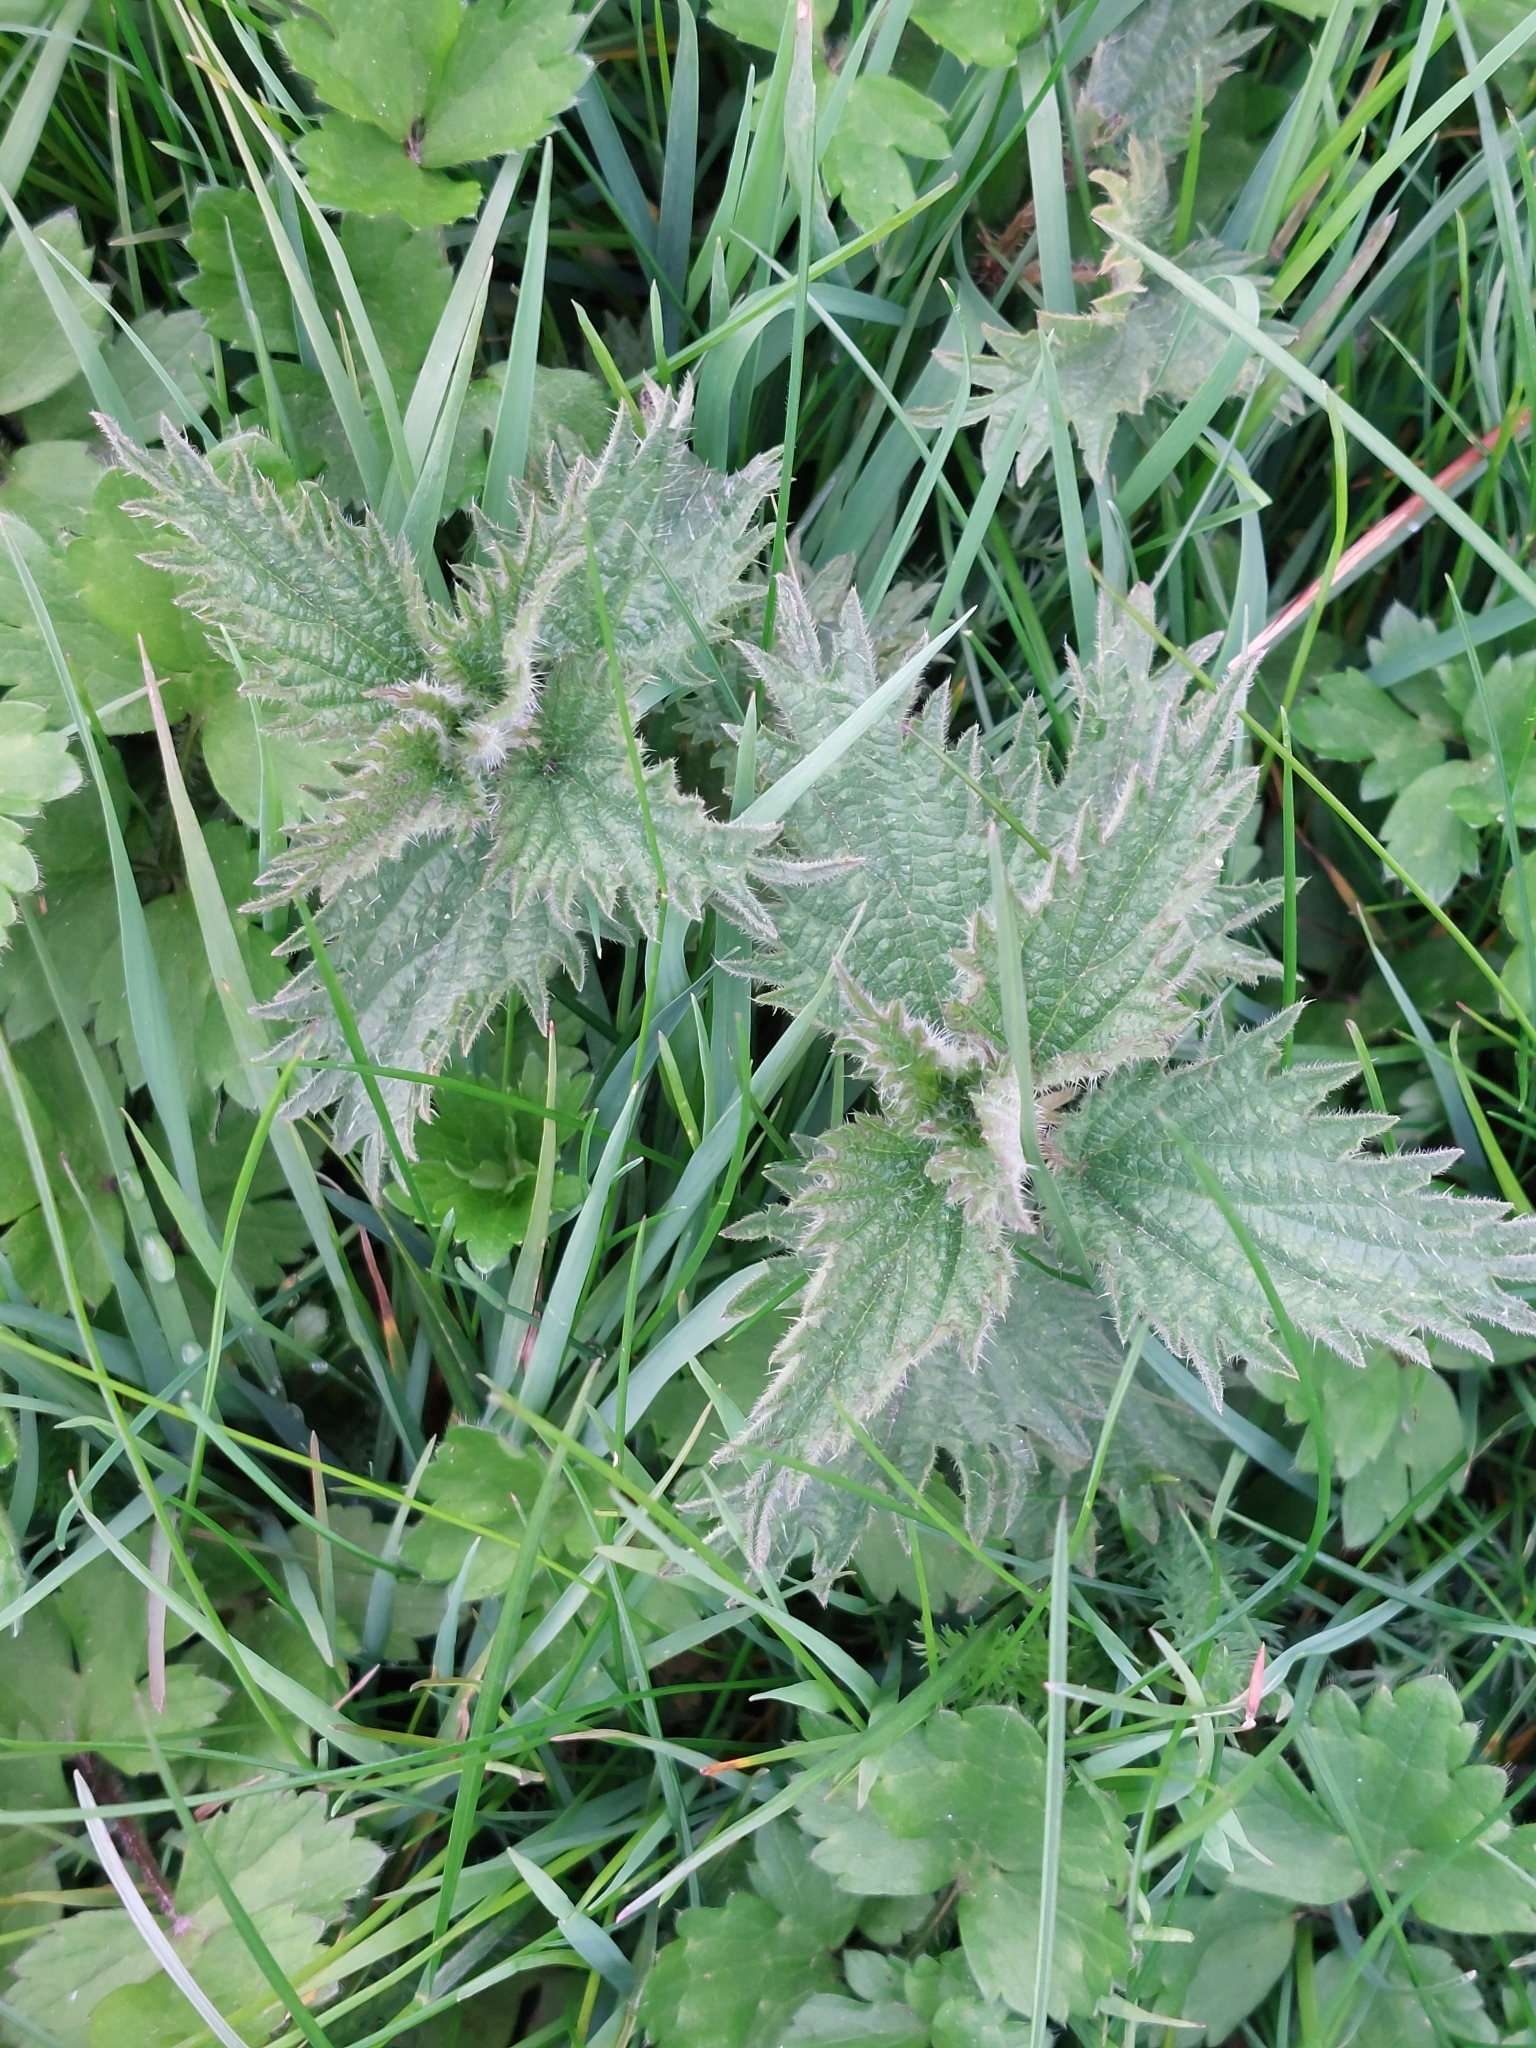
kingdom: Plantae
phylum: Tracheophyta
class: Magnoliopsida
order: Rosales
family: Urticaceae
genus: Urtica
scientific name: Urtica dioica
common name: Common nettle
